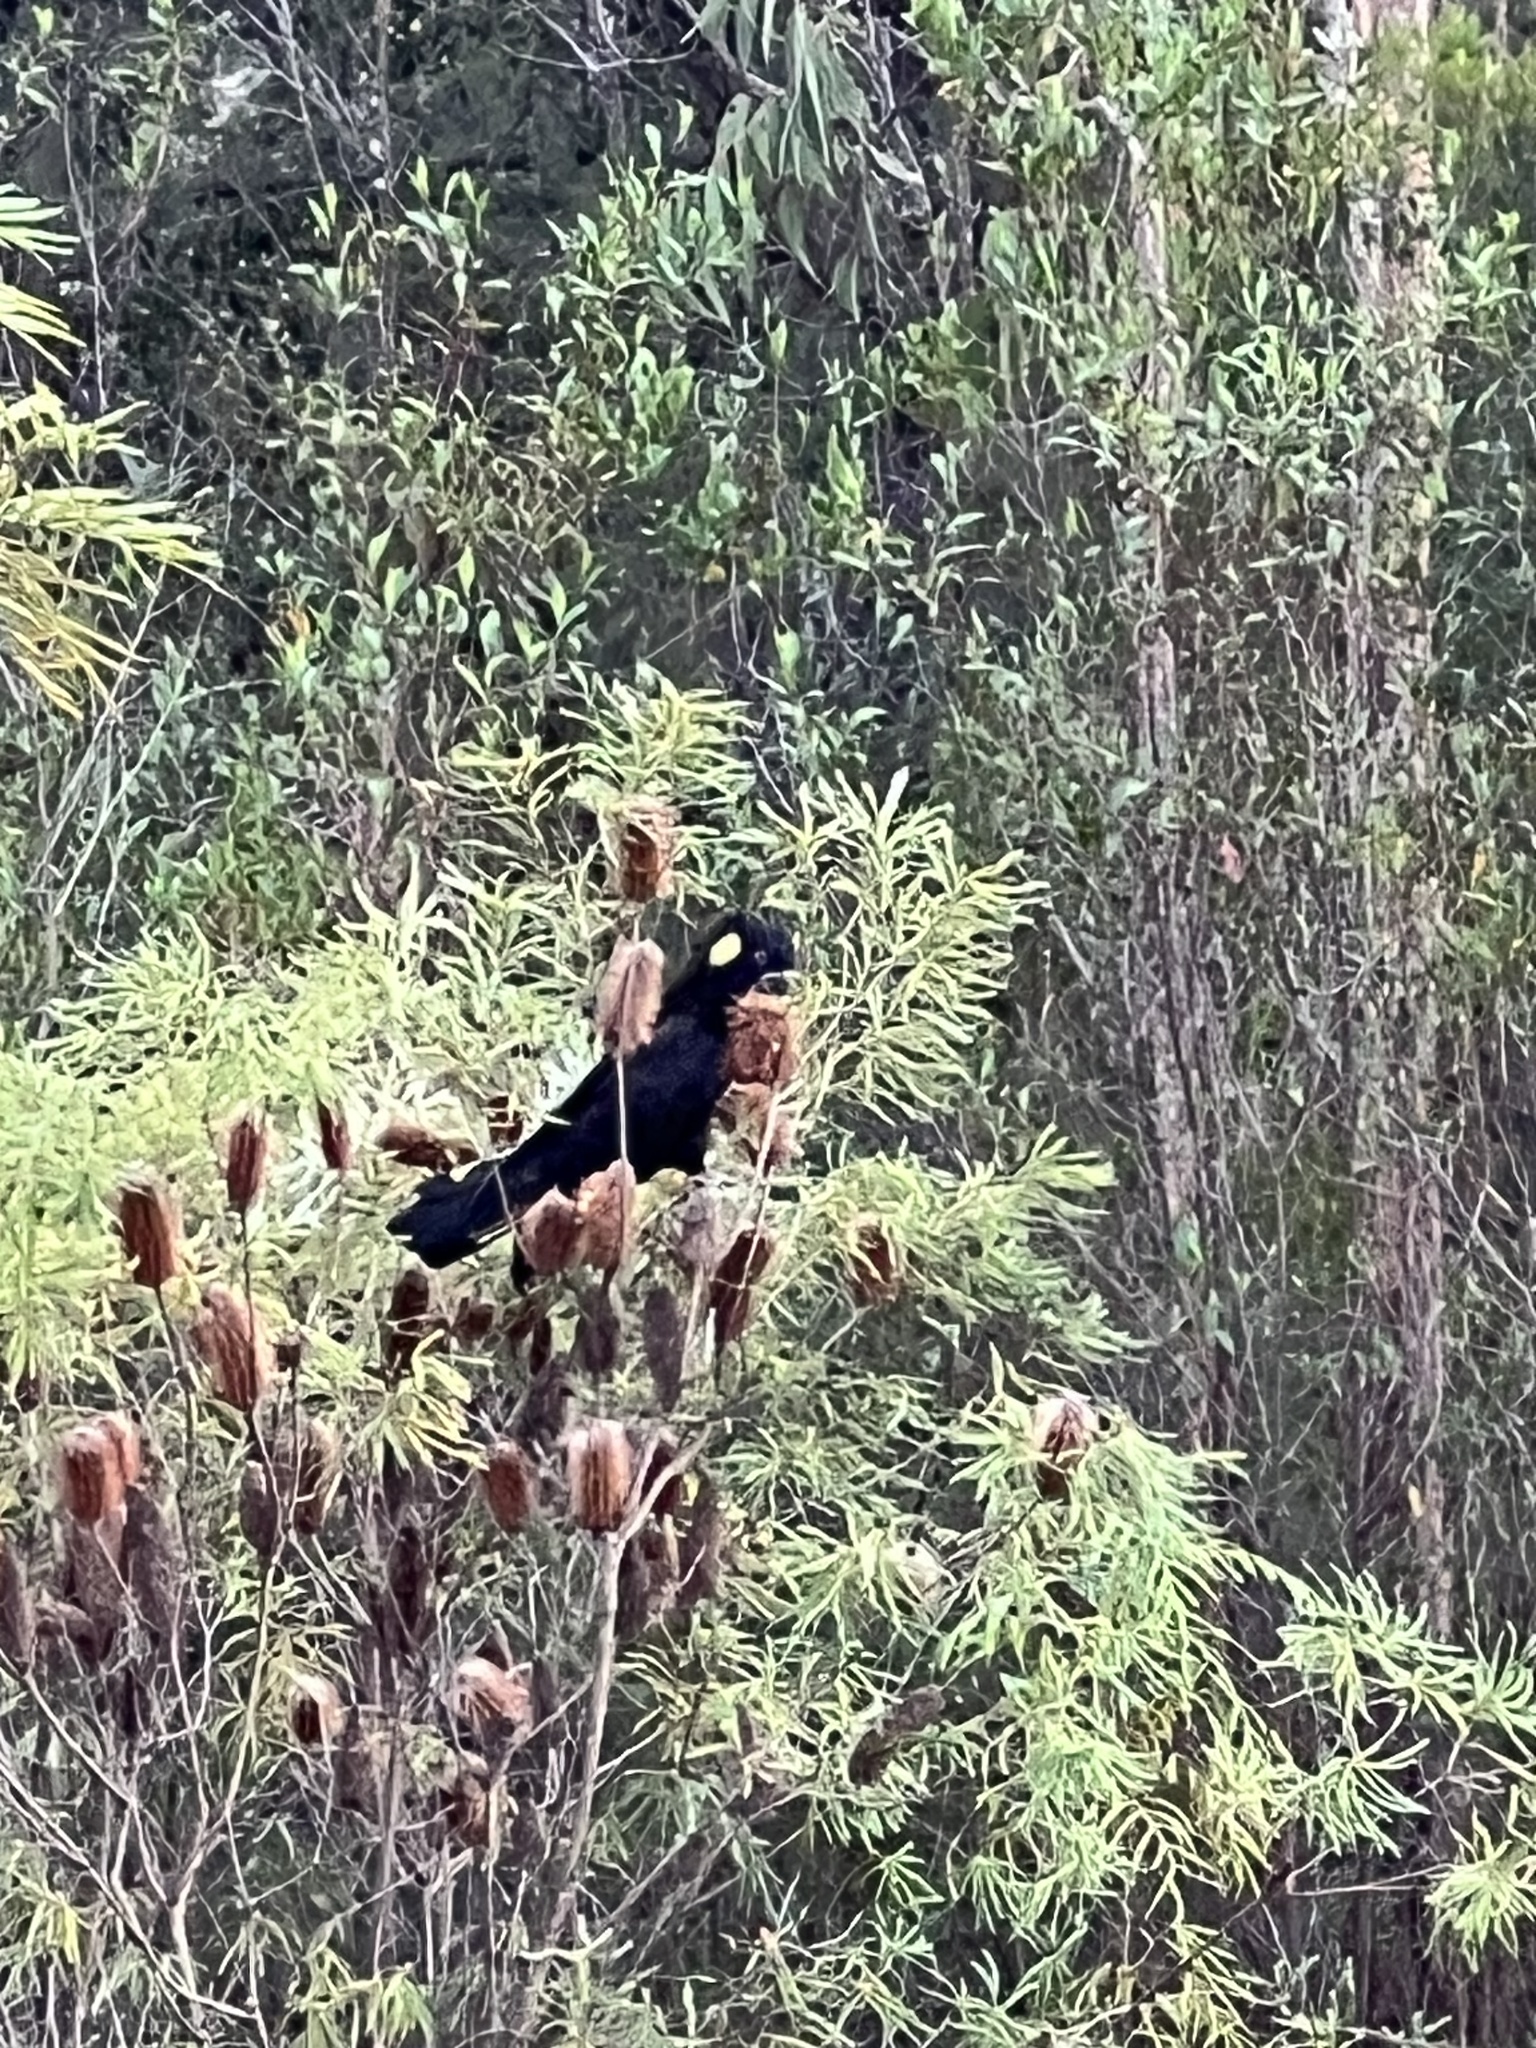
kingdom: Animalia
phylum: Chordata
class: Aves
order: Psittaciformes
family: Cacatuidae
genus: Zanda
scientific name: Zanda funerea
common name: Yellow-tailed black-cockatoo
